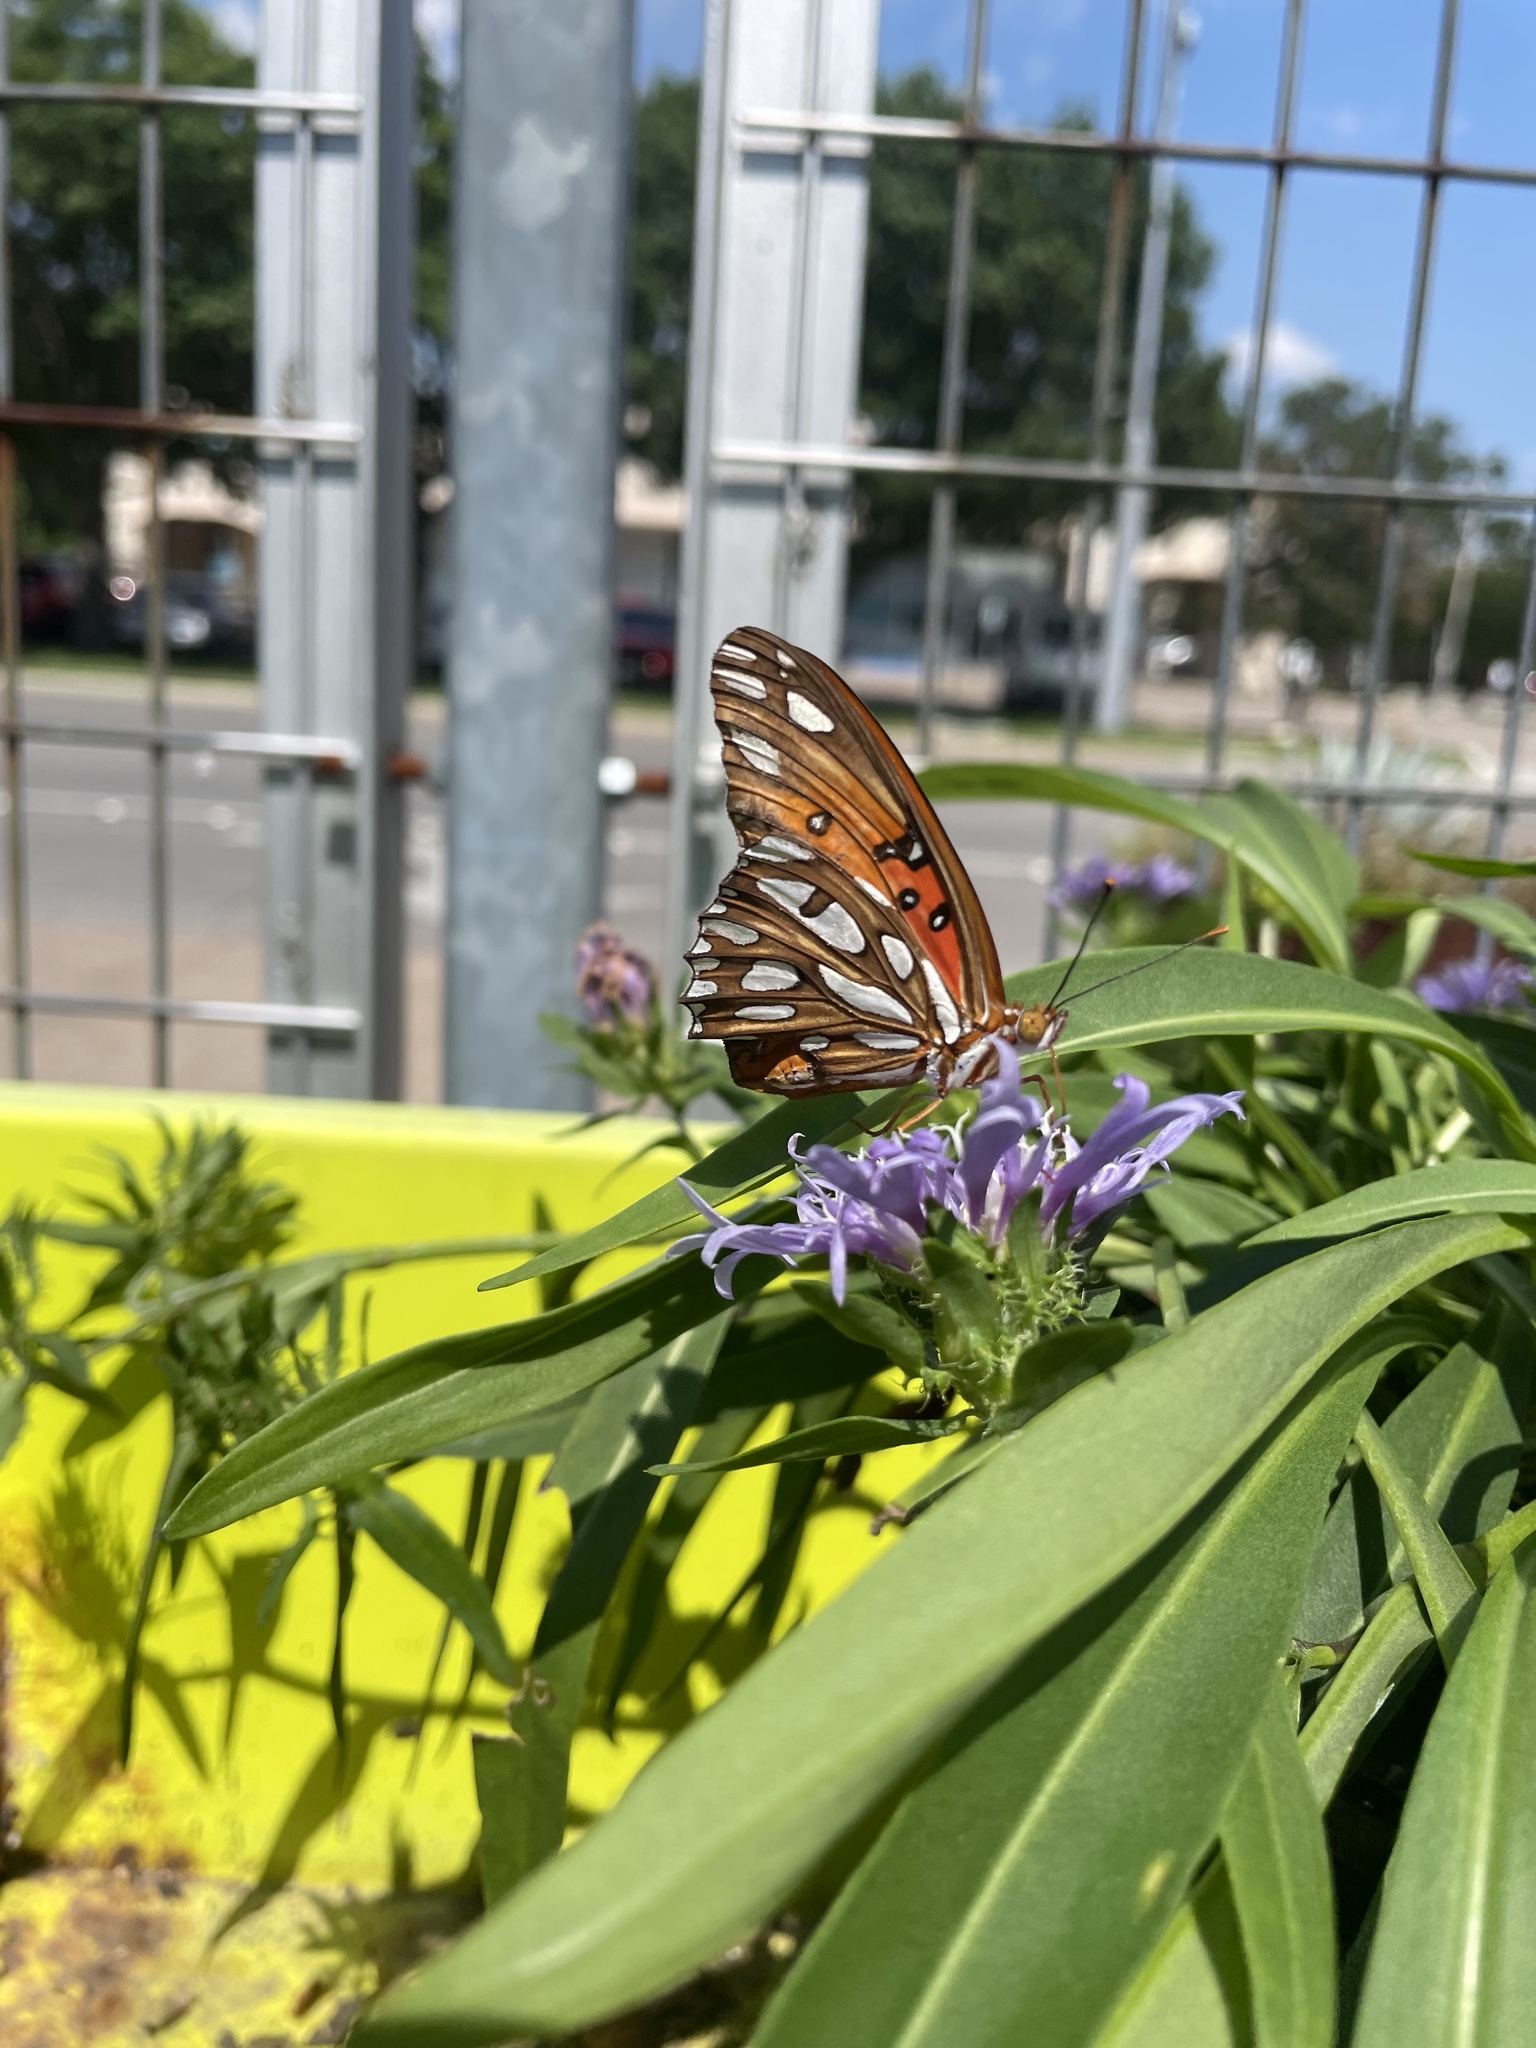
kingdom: Animalia
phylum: Arthropoda
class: Insecta
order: Lepidoptera
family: Nymphalidae
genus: Dione
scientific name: Dione vanillae
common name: Gulf fritillary
